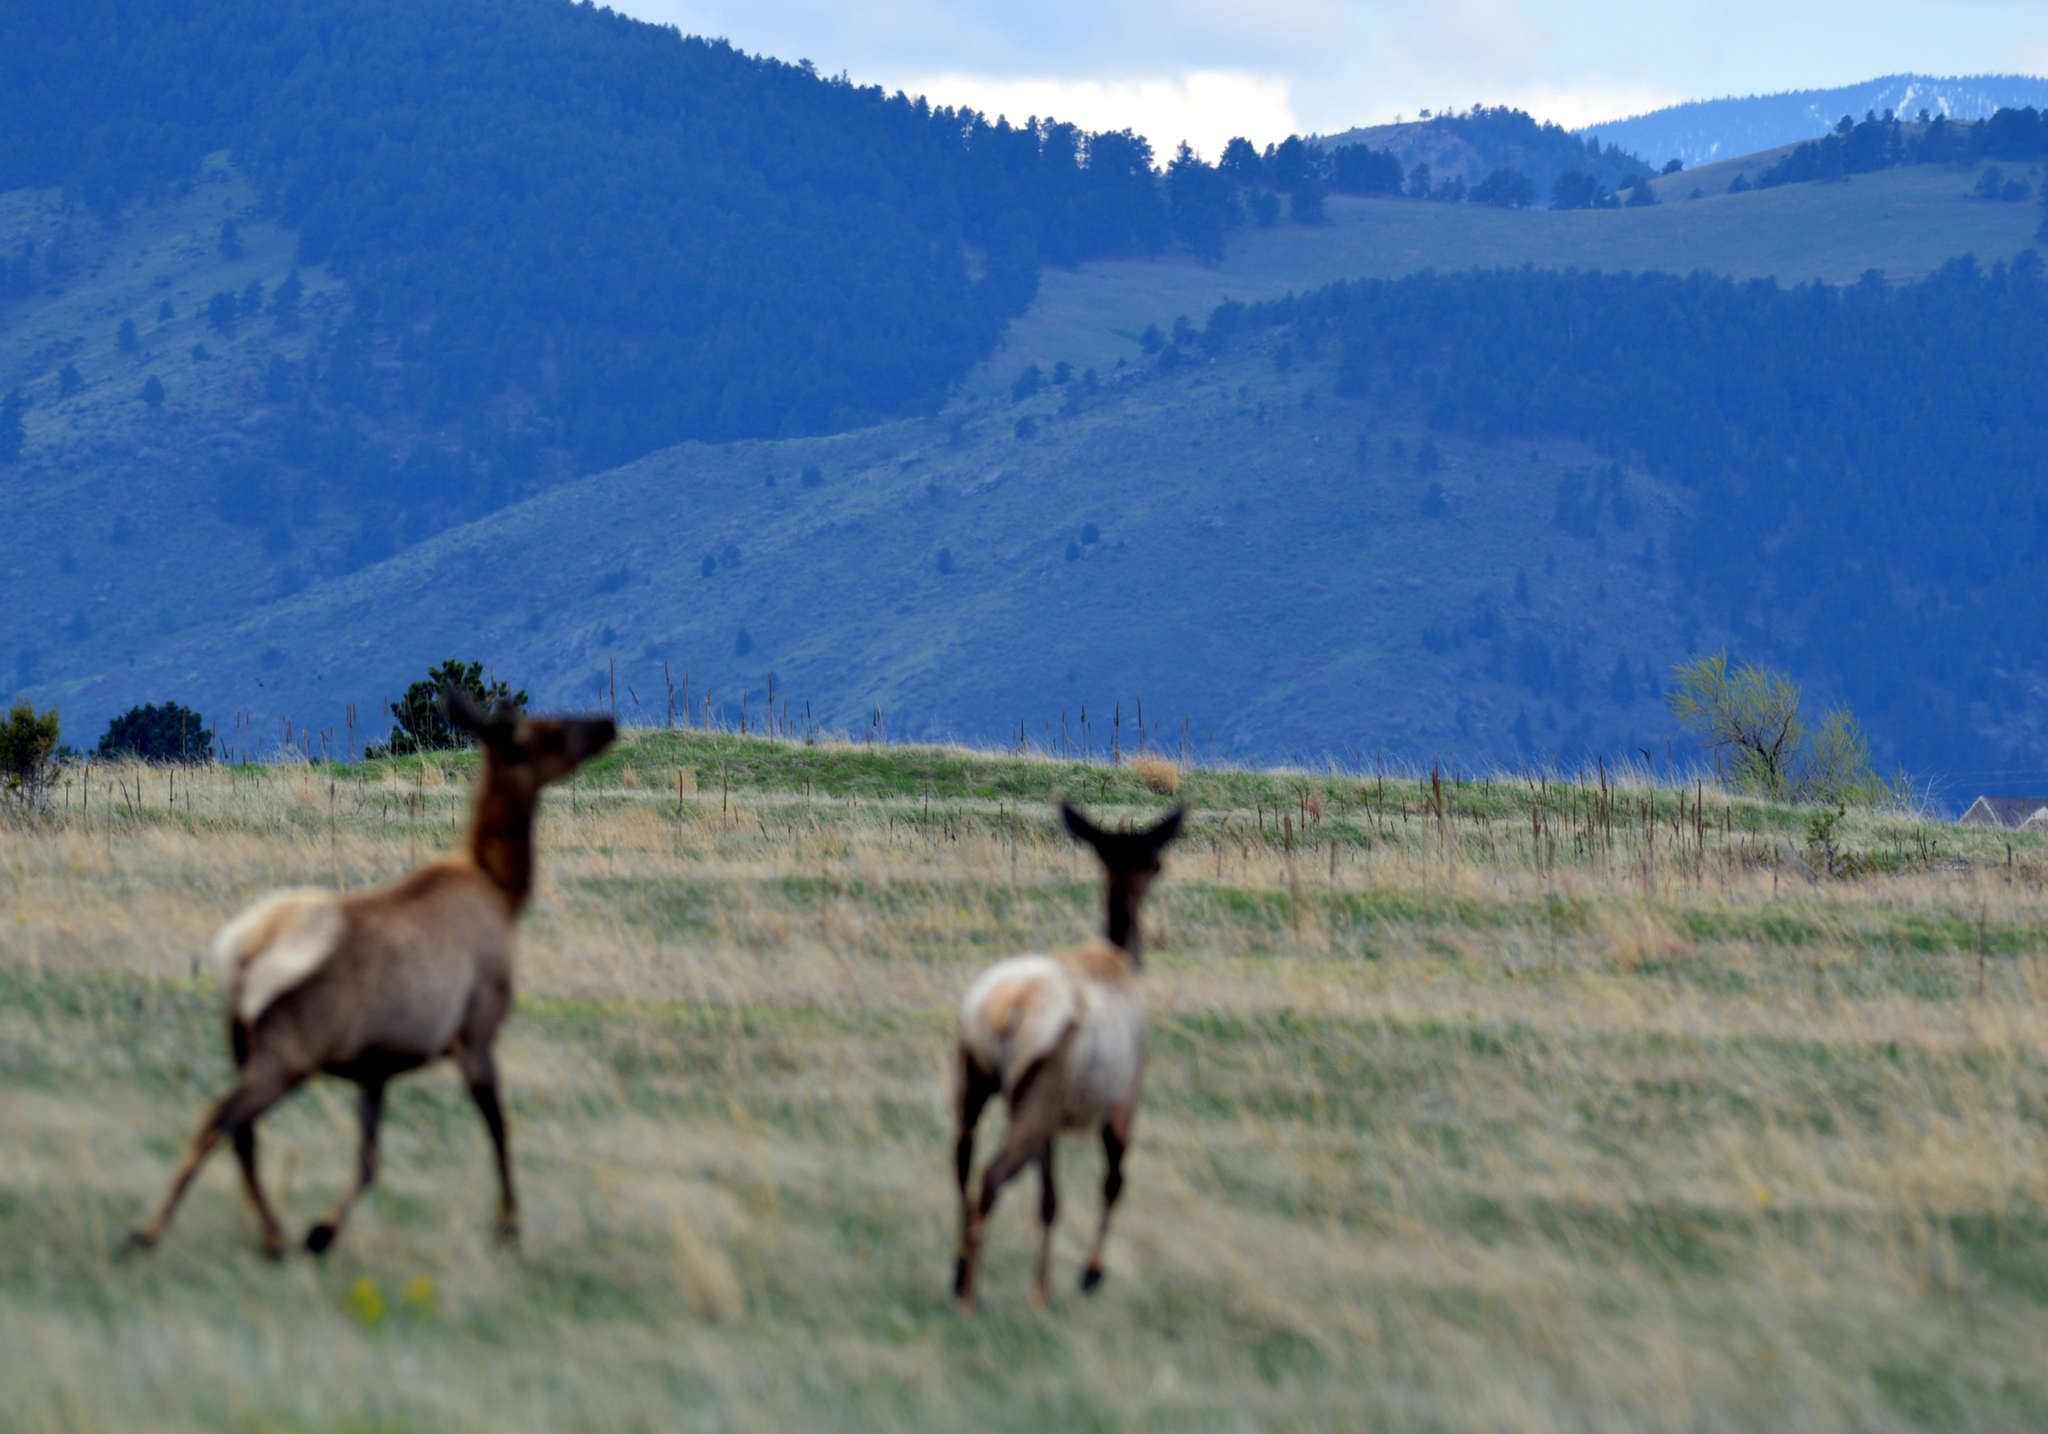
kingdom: Animalia
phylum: Chordata
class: Mammalia
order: Artiodactyla
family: Cervidae
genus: Cervus
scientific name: Cervus elaphus
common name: Red deer
